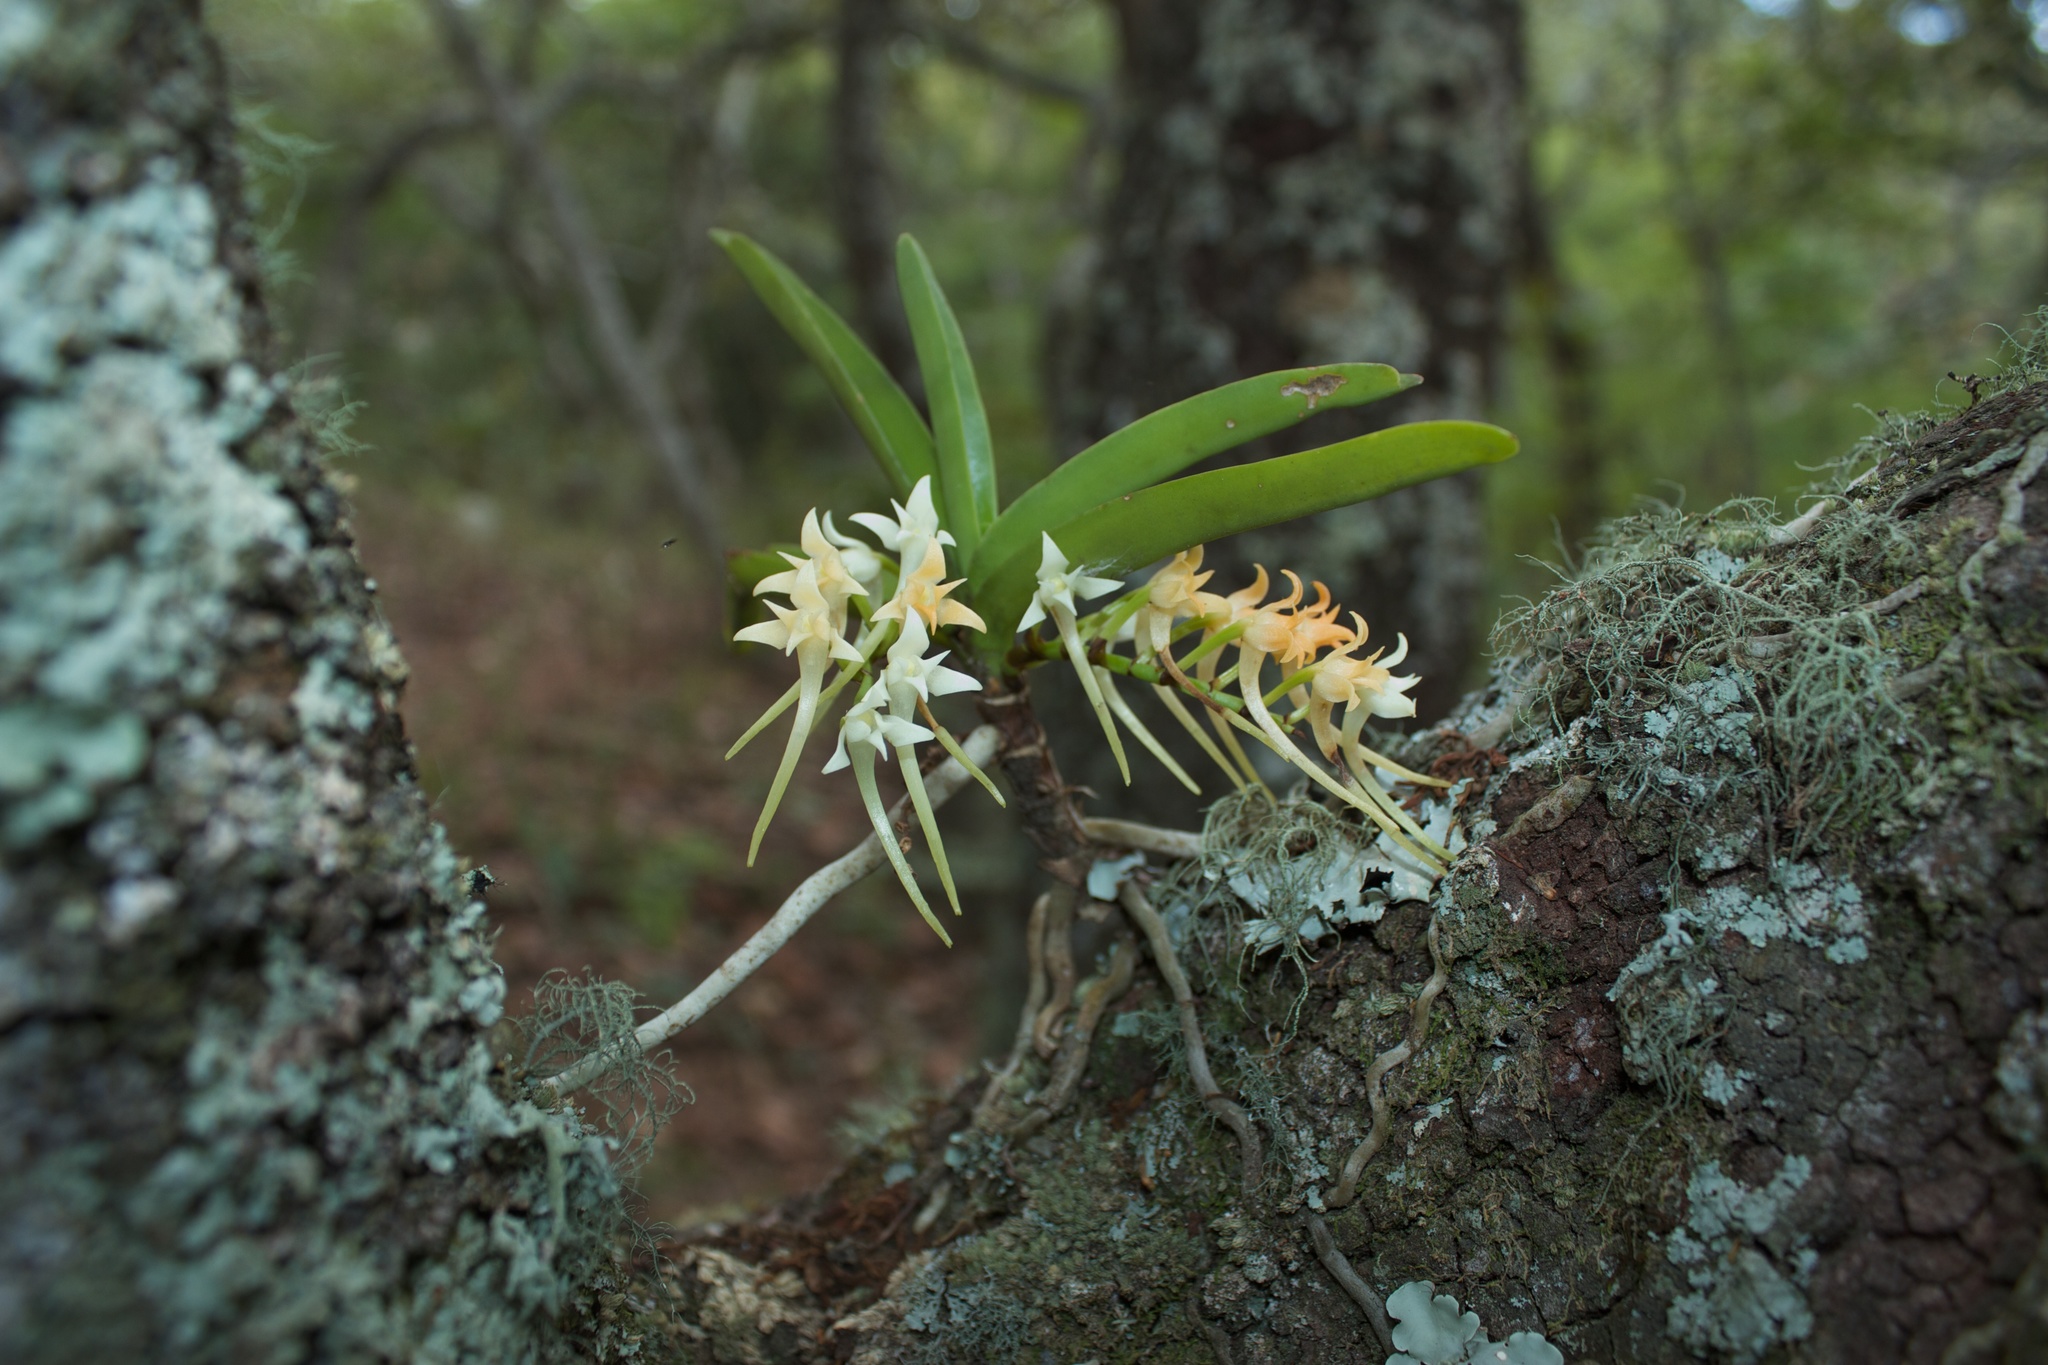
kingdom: Plantae
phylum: Tracheophyta
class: Liliopsida
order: Asparagales
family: Orchidaceae
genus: Cyrtorchis
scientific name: Cyrtorchis praetermissa
